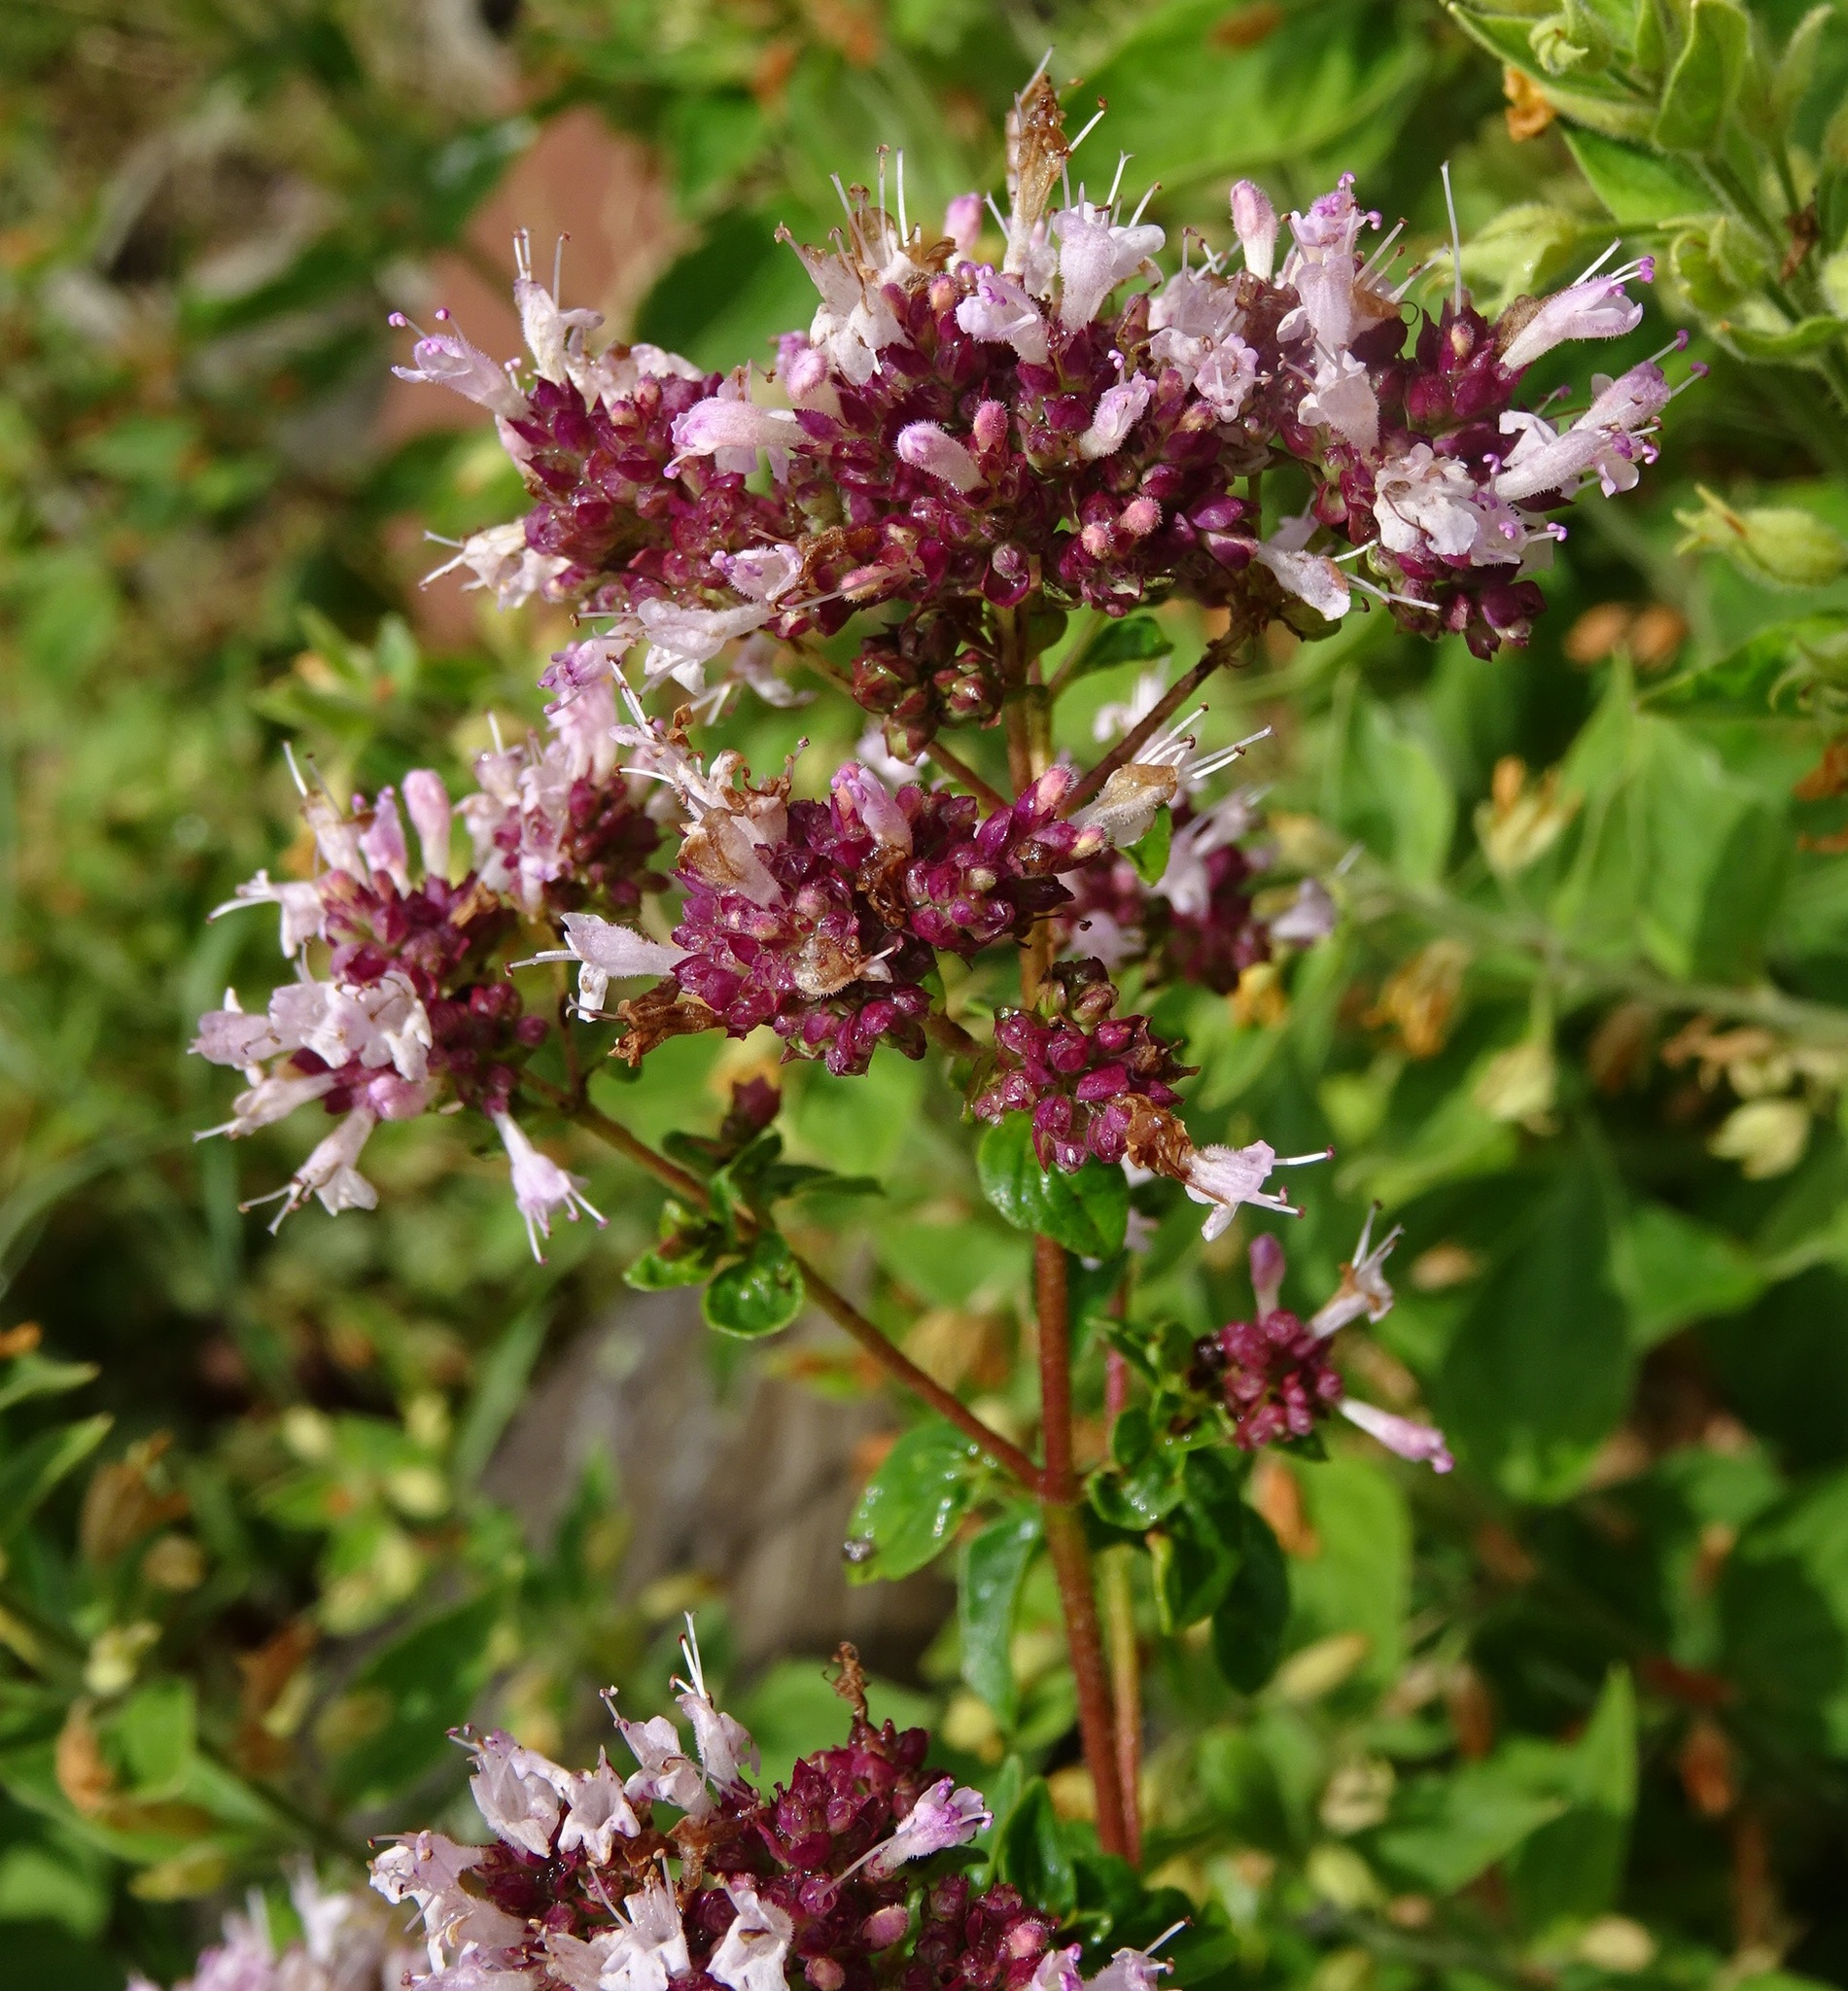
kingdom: Plantae
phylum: Tracheophyta
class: Magnoliopsida
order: Lamiales
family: Lamiaceae
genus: Origanum
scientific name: Origanum vulgare
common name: Wild marjoram
